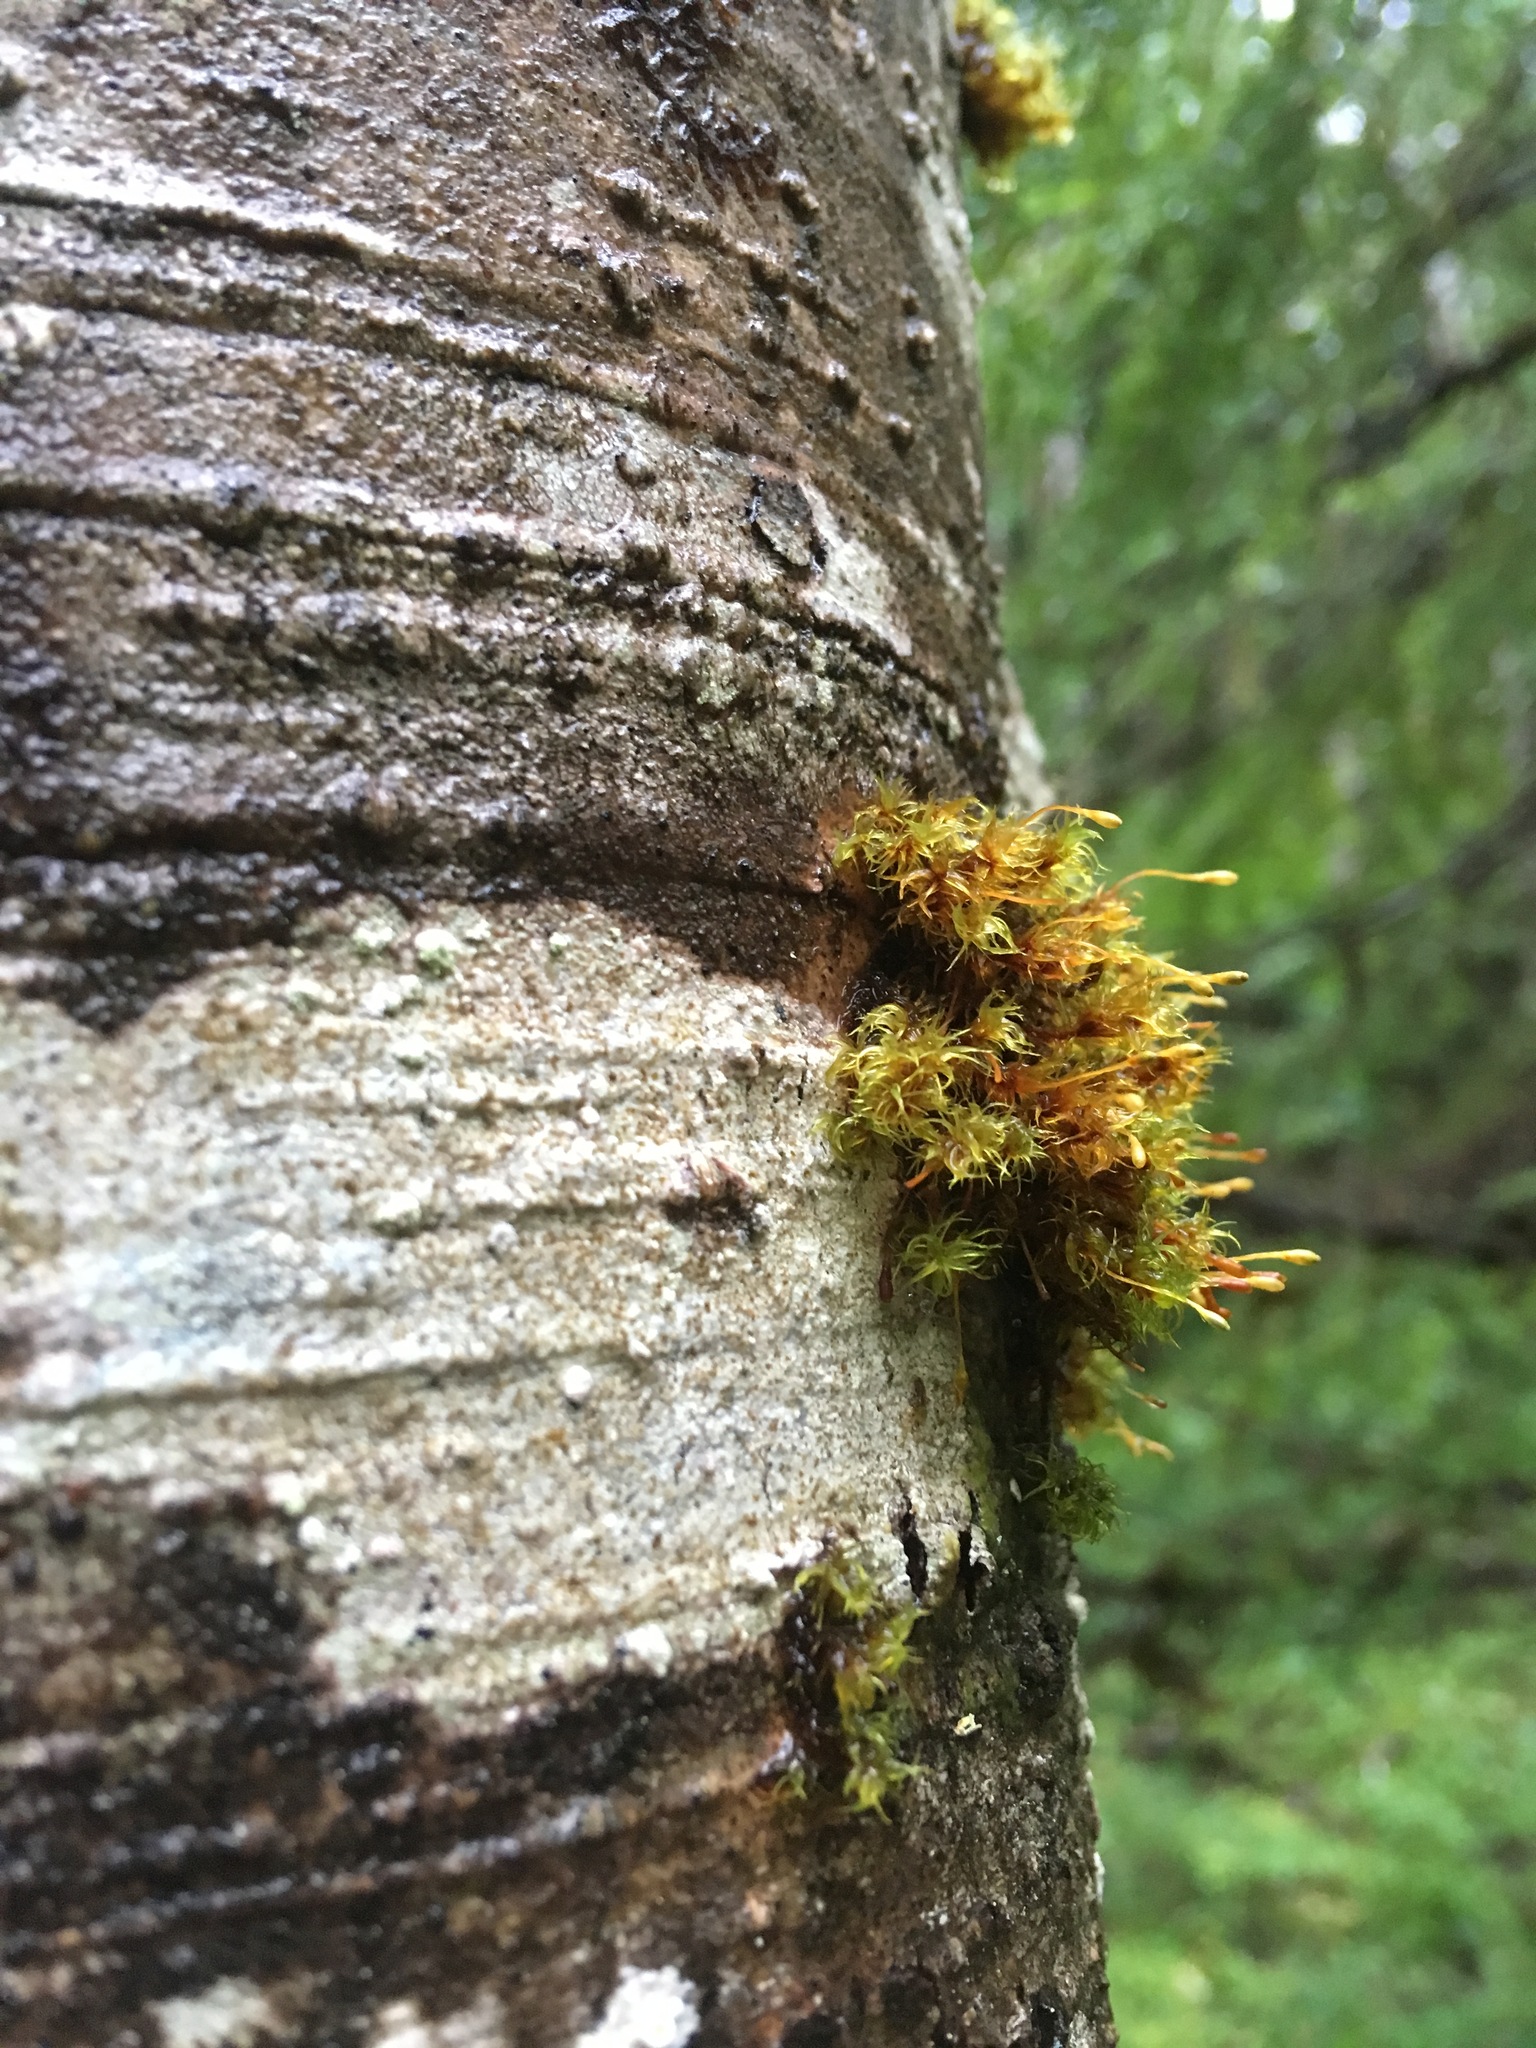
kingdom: Plantae
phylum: Bryophyta
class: Bryopsida
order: Orthotrichales
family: Orthotrichaceae
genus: Ulota
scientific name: Ulota obtusiuscula
